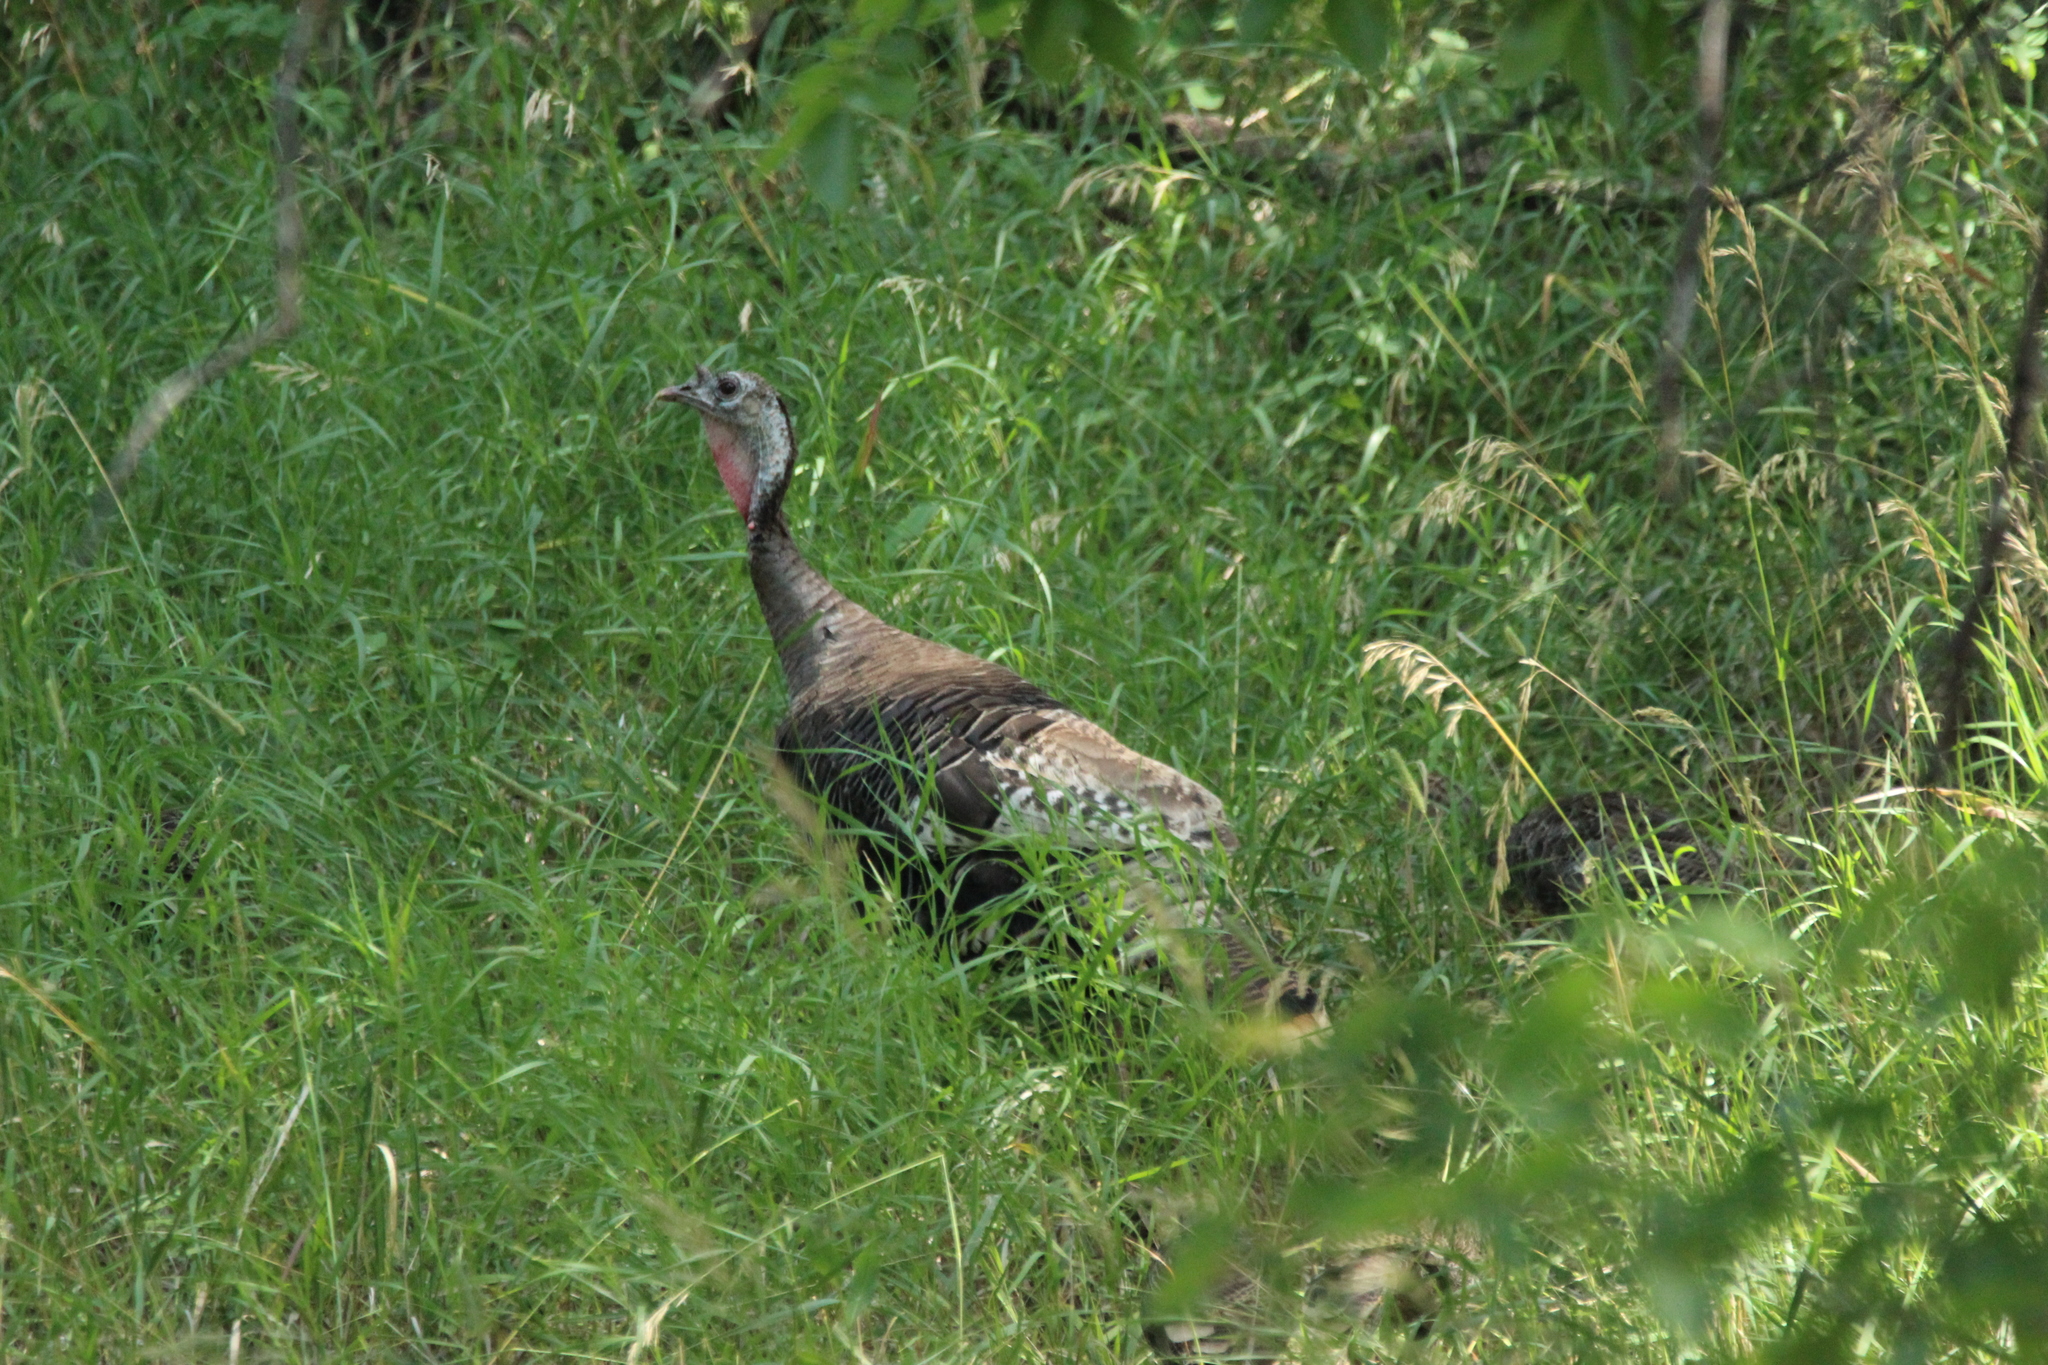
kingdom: Animalia
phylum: Chordata
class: Aves
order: Galliformes
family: Phasianidae
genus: Meleagris
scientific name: Meleagris gallopavo
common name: Wild turkey
